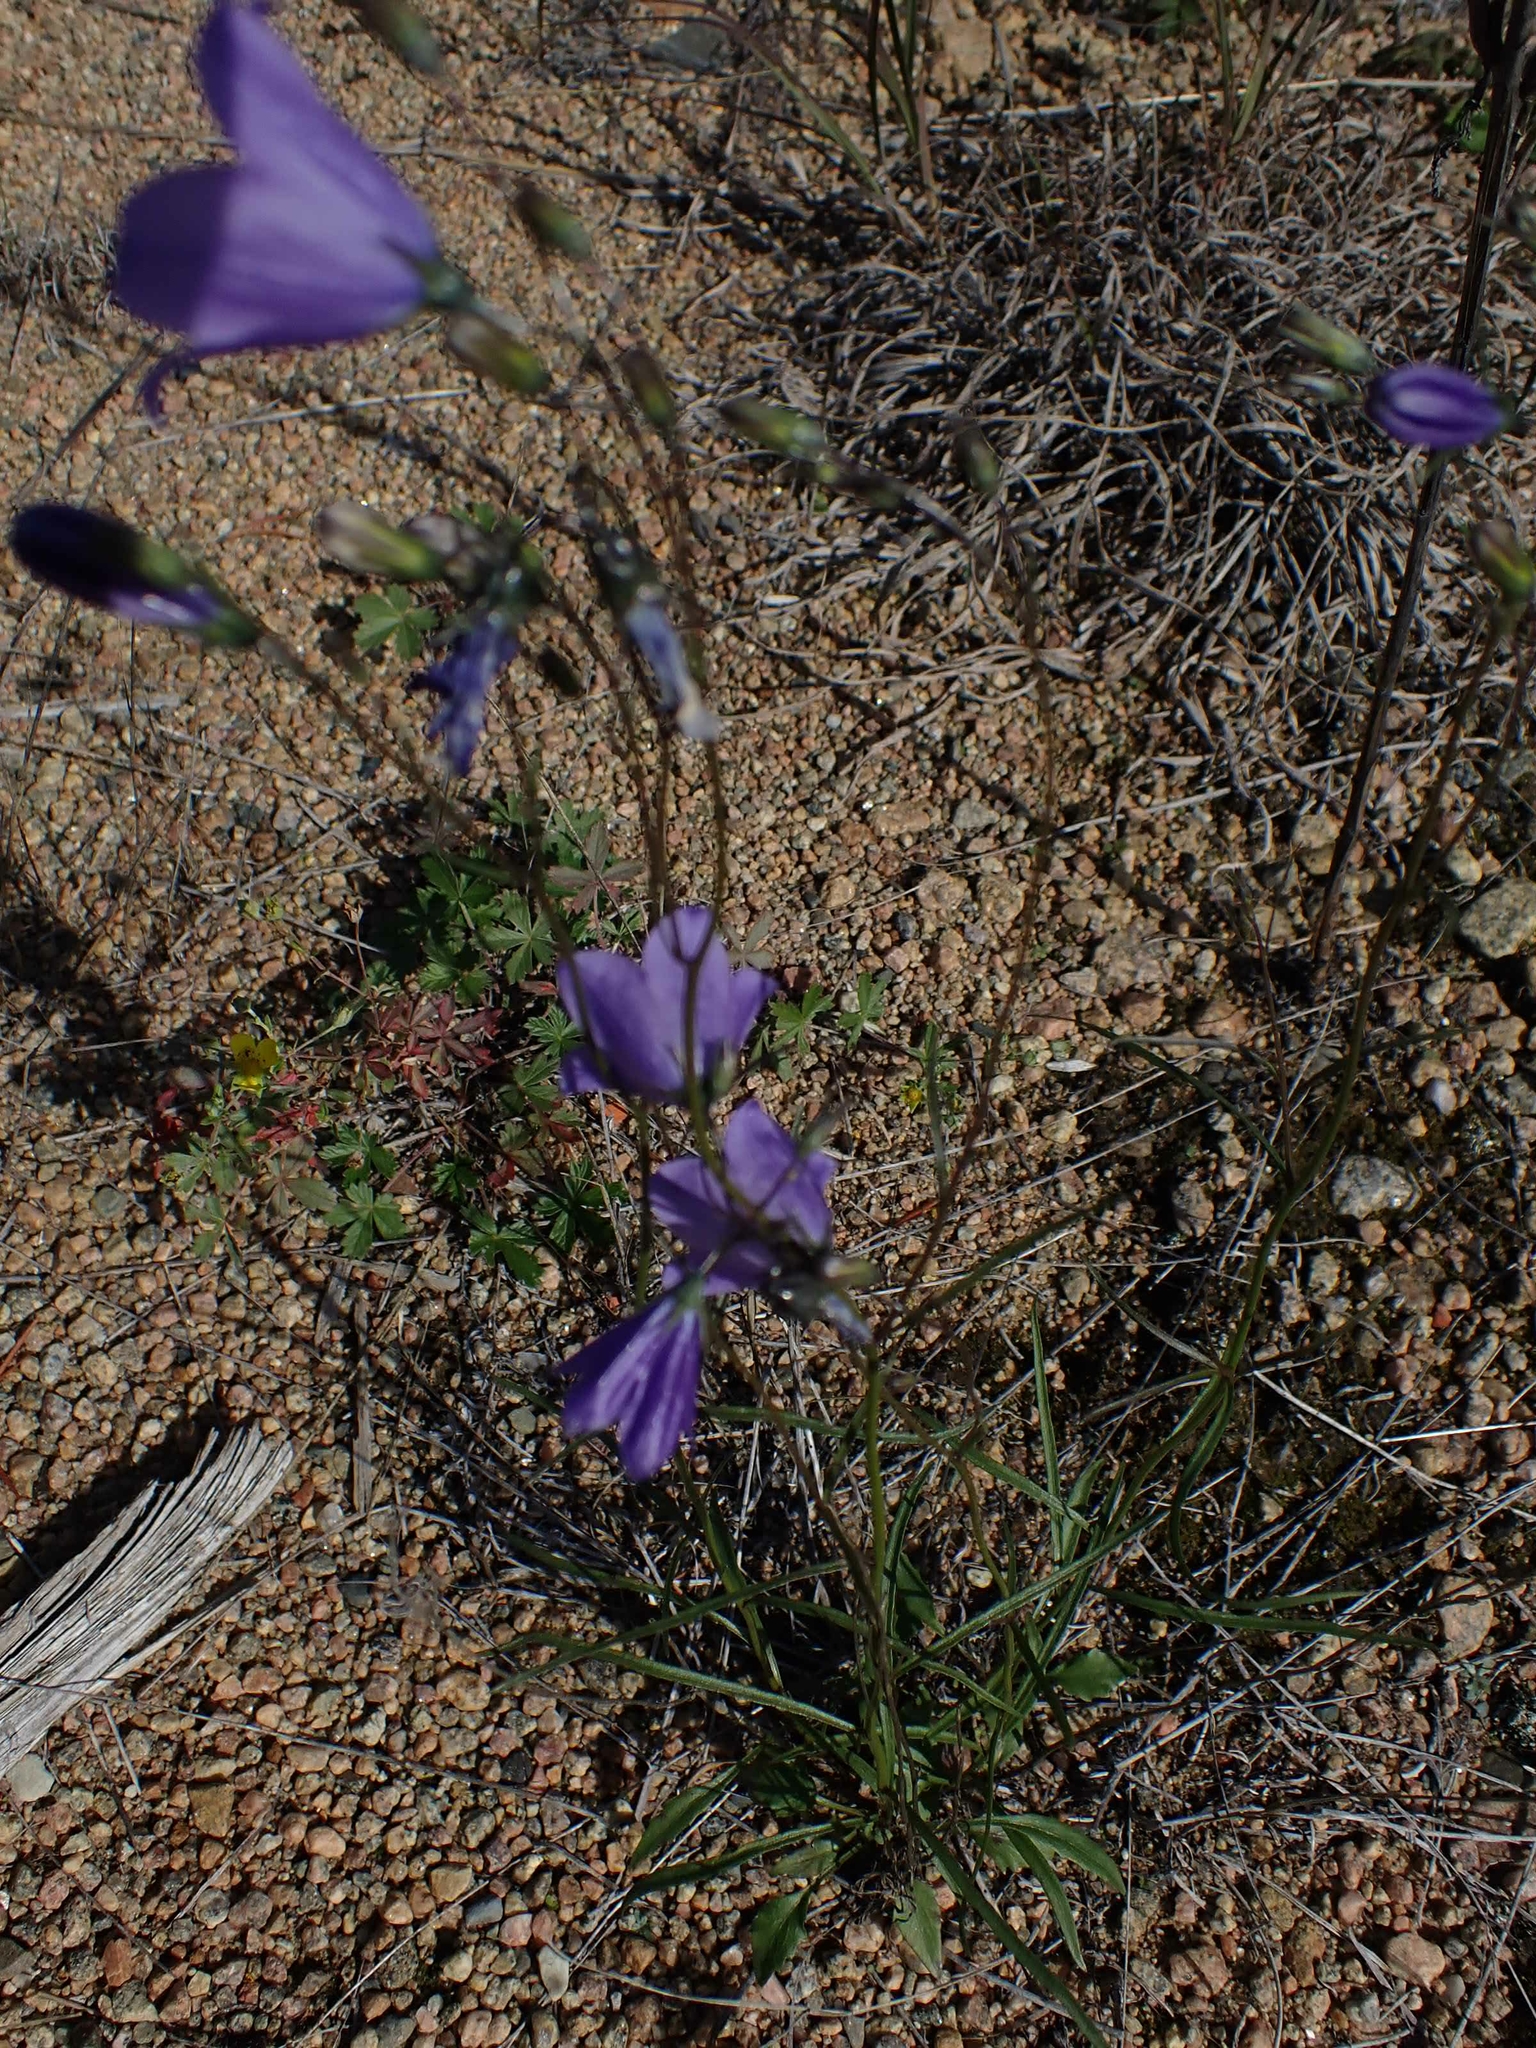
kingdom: Plantae
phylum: Tracheophyta
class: Magnoliopsida
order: Asterales
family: Campanulaceae
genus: Campanula
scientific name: Campanula petiolata
